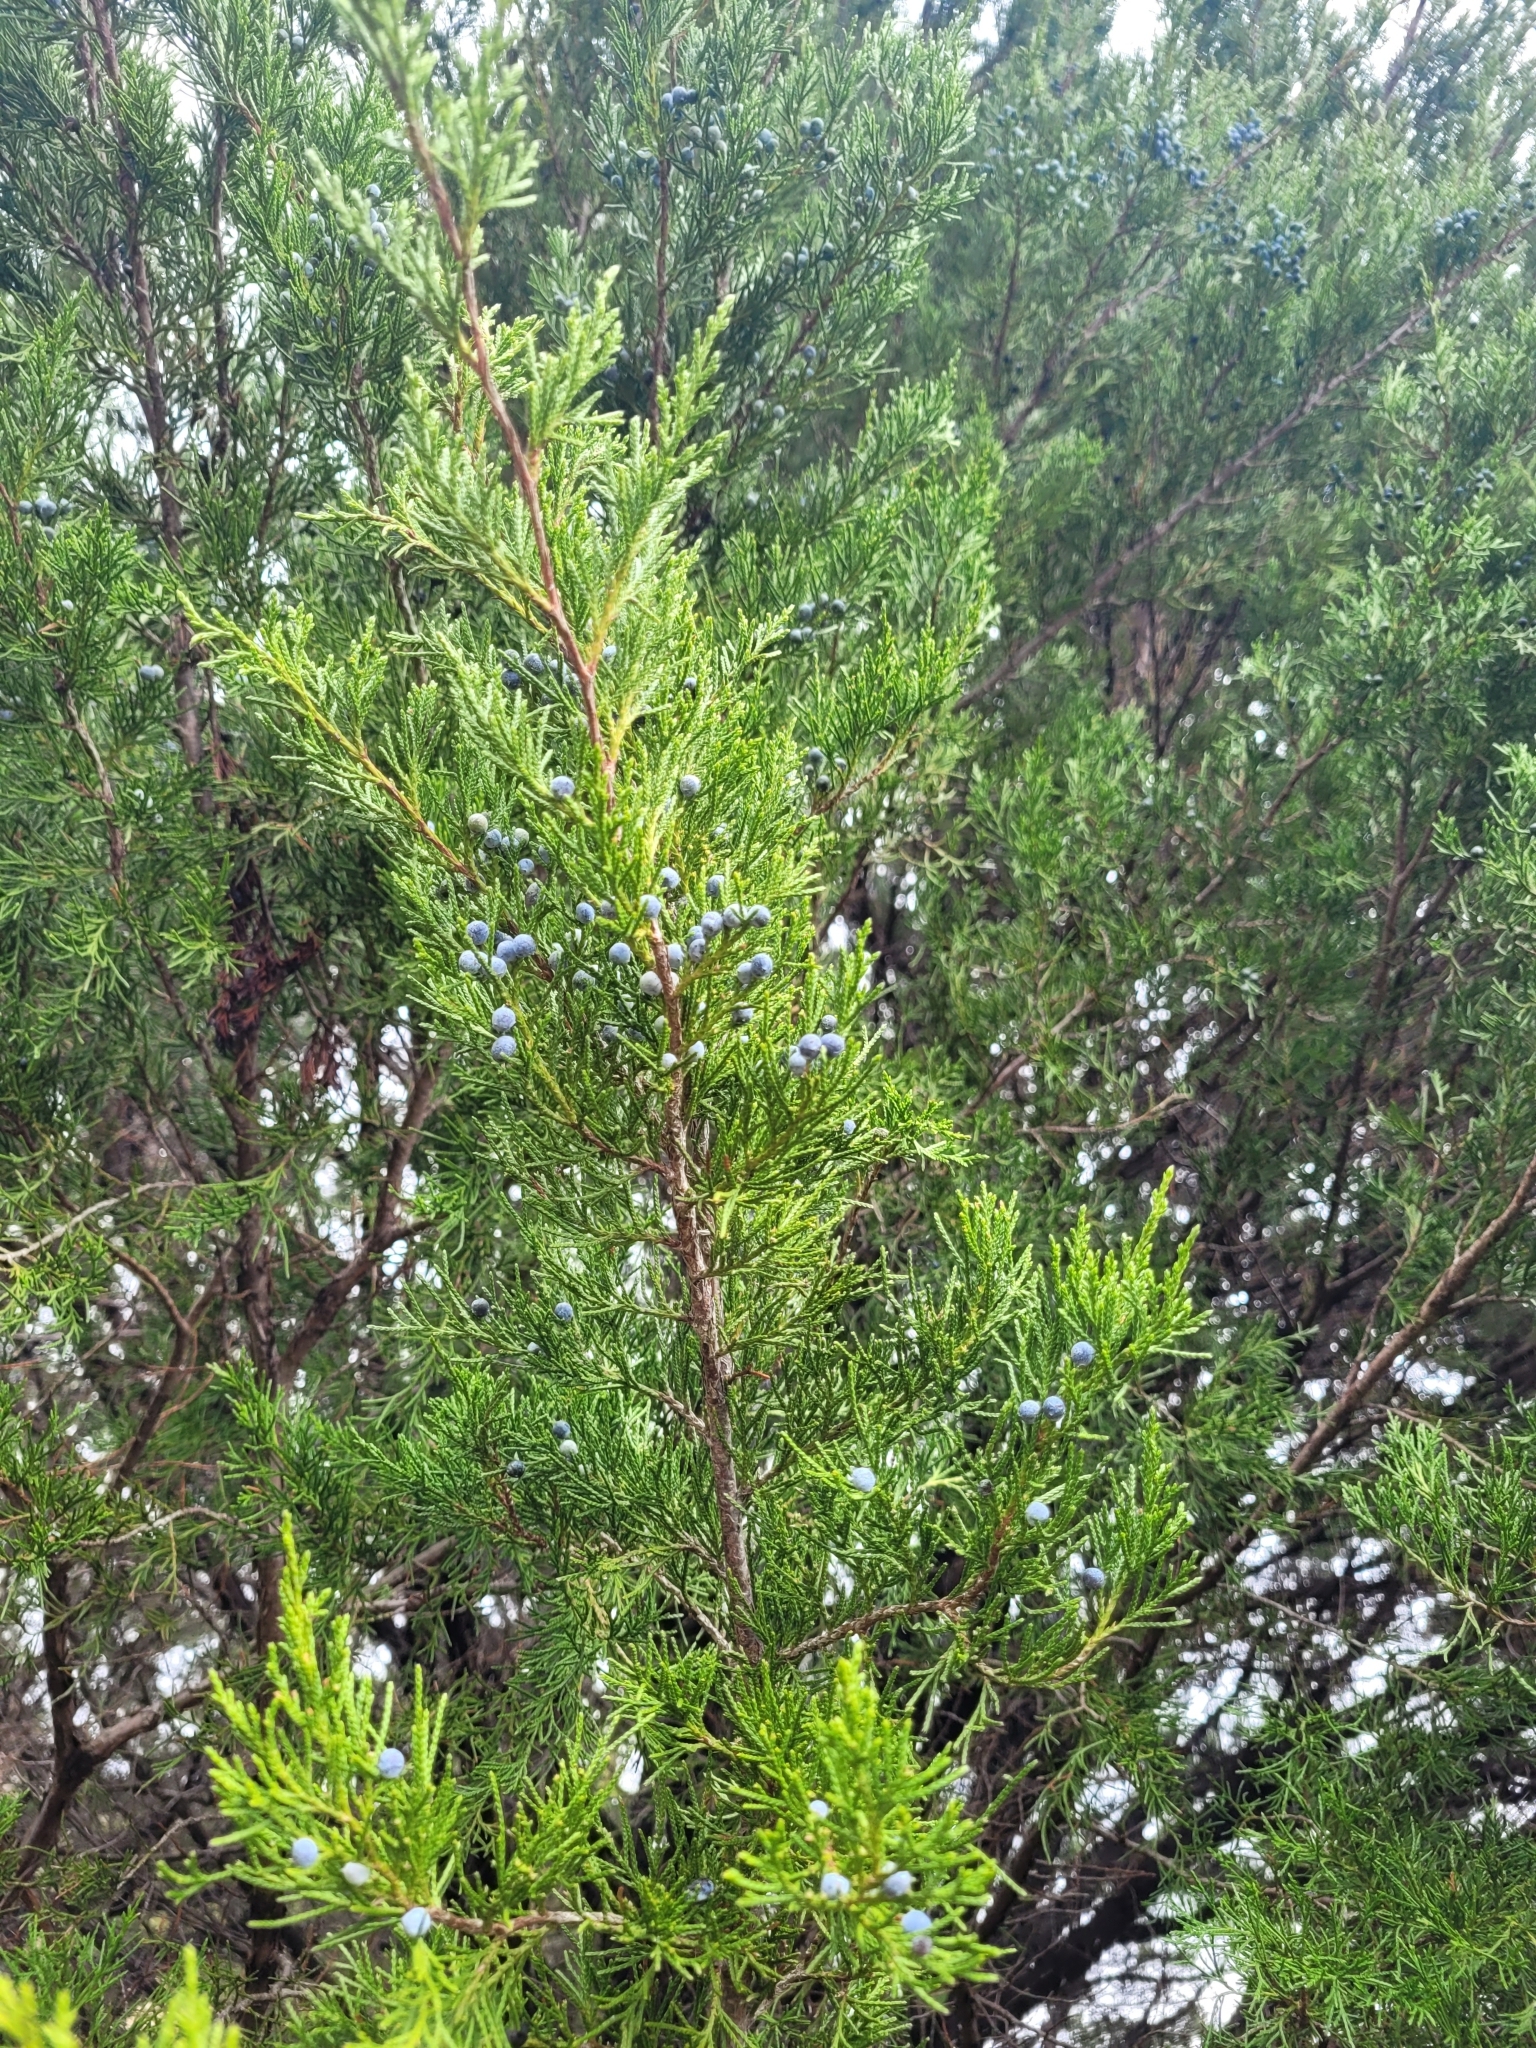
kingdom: Plantae
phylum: Tracheophyta
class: Pinopsida
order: Pinales
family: Cupressaceae
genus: Juniperus
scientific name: Juniperus virginiana
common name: Red juniper
